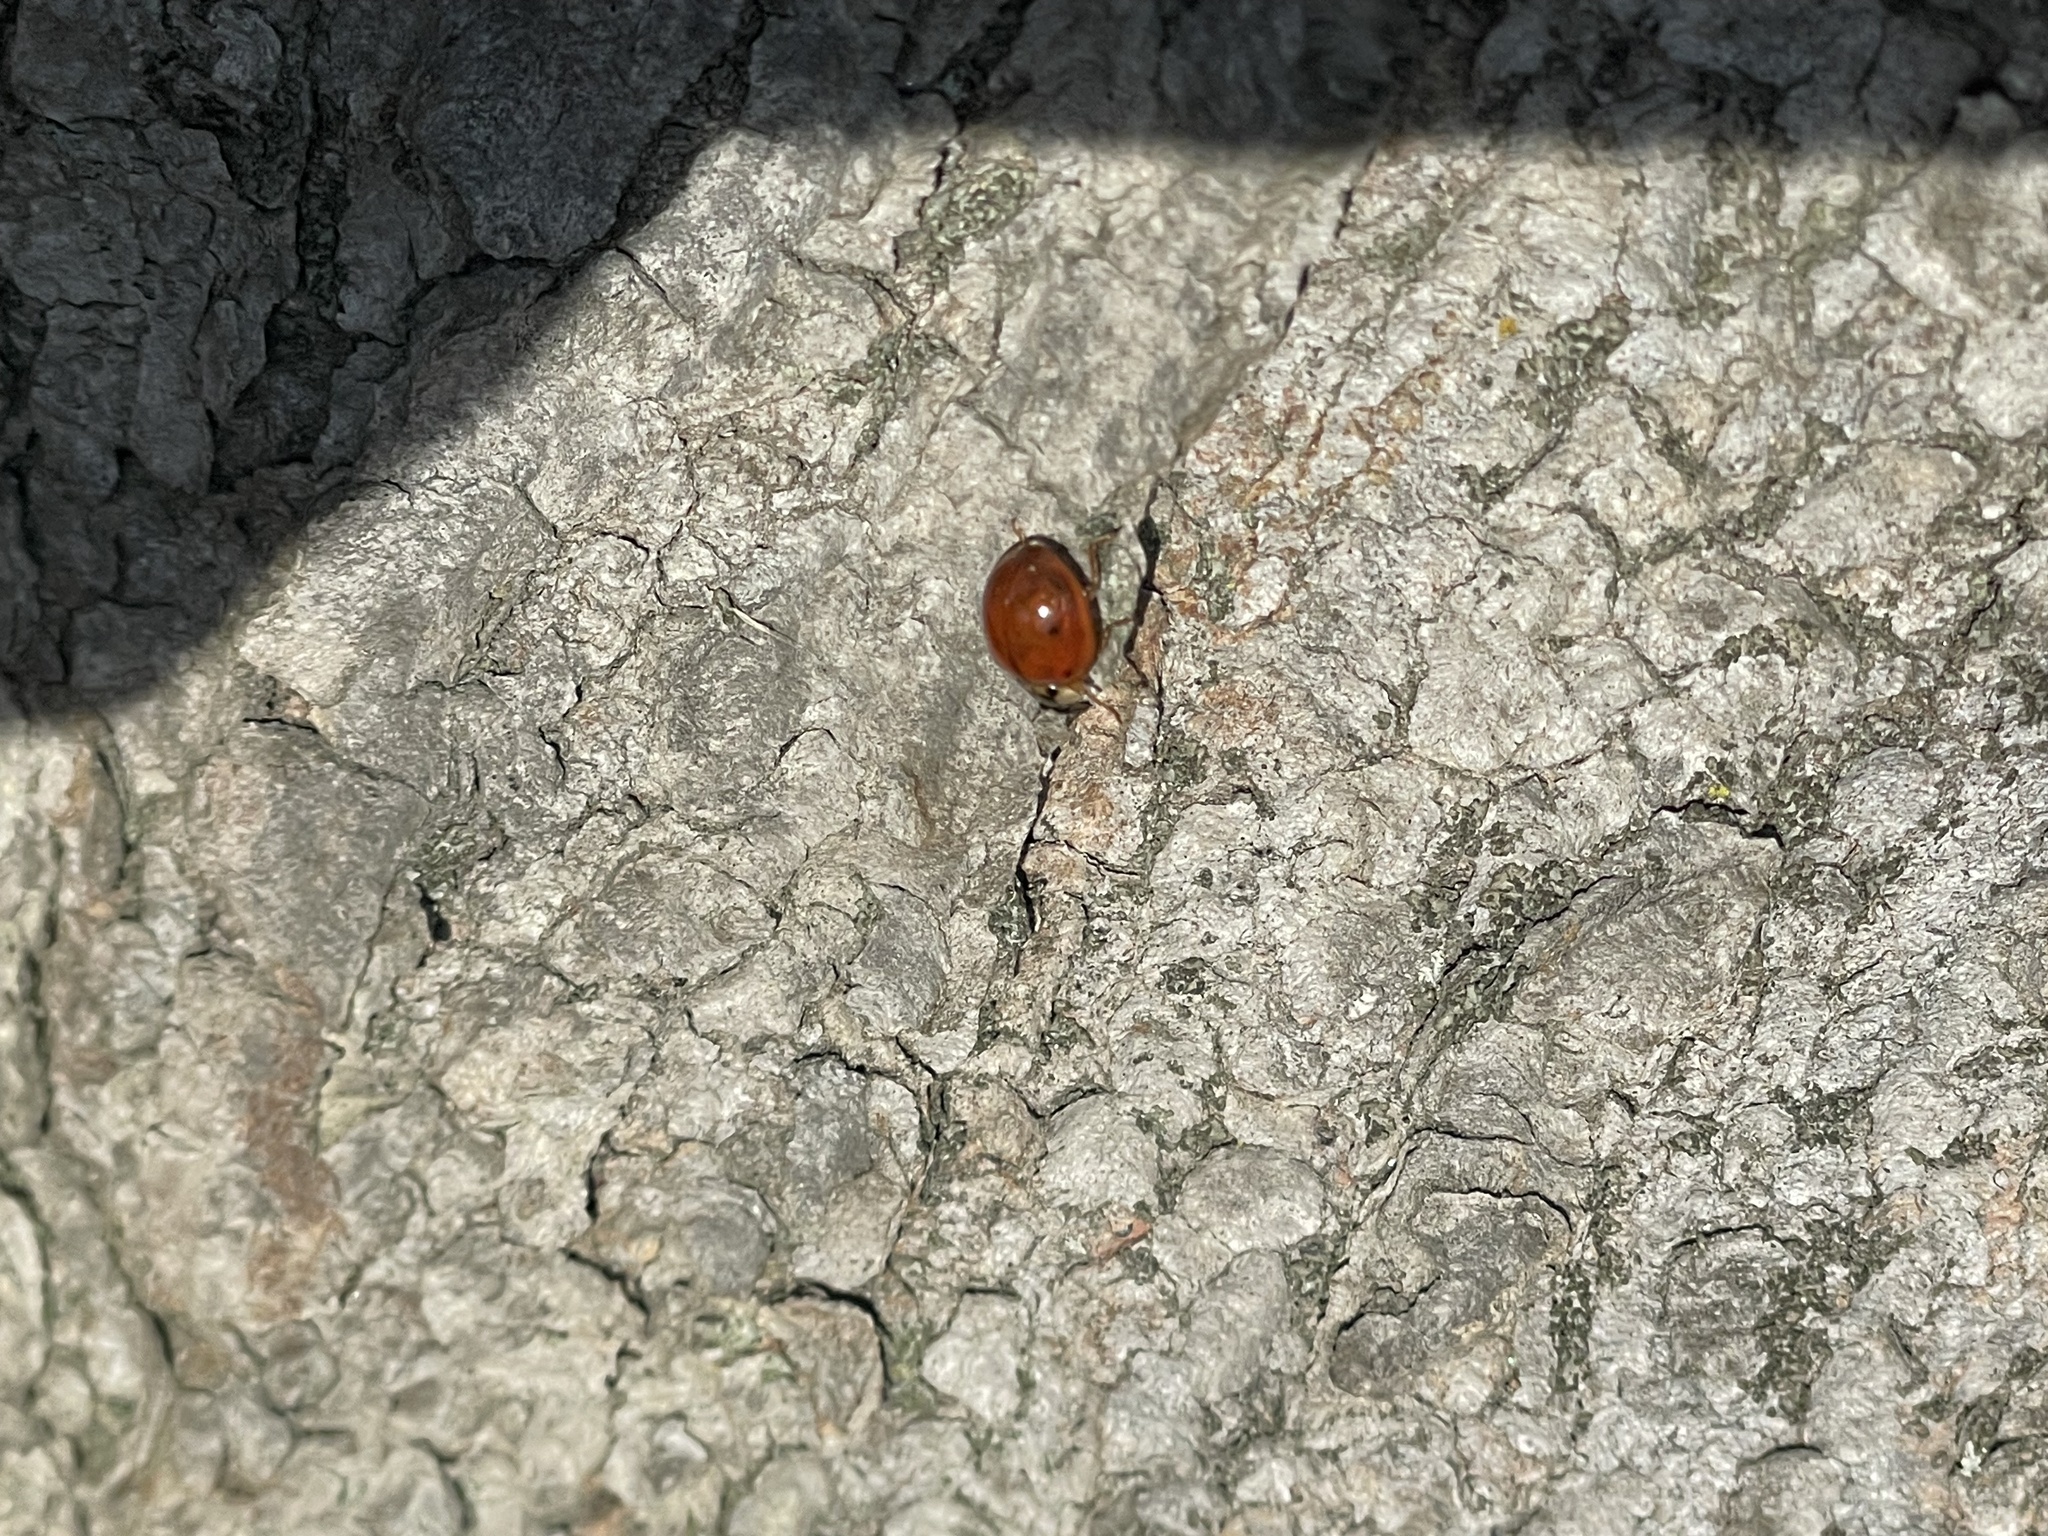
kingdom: Animalia
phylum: Arthropoda
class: Insecta
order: Coleoptera
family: Coccinellidae
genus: Harmonia
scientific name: Harmonia axyridis
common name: Harlequin ladybird
